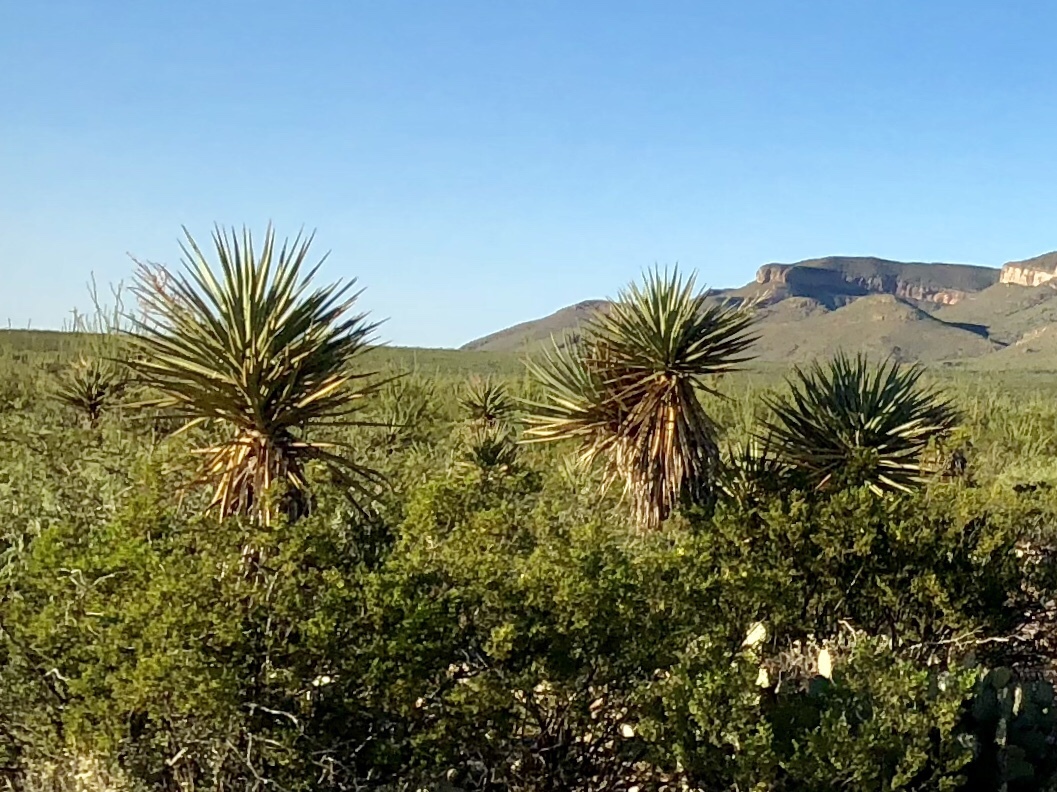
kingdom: Plantae
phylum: Tracheophyta
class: Liliopsida
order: Asparagales
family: Asparagaceae
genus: Yucca
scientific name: Yucca treculiana
